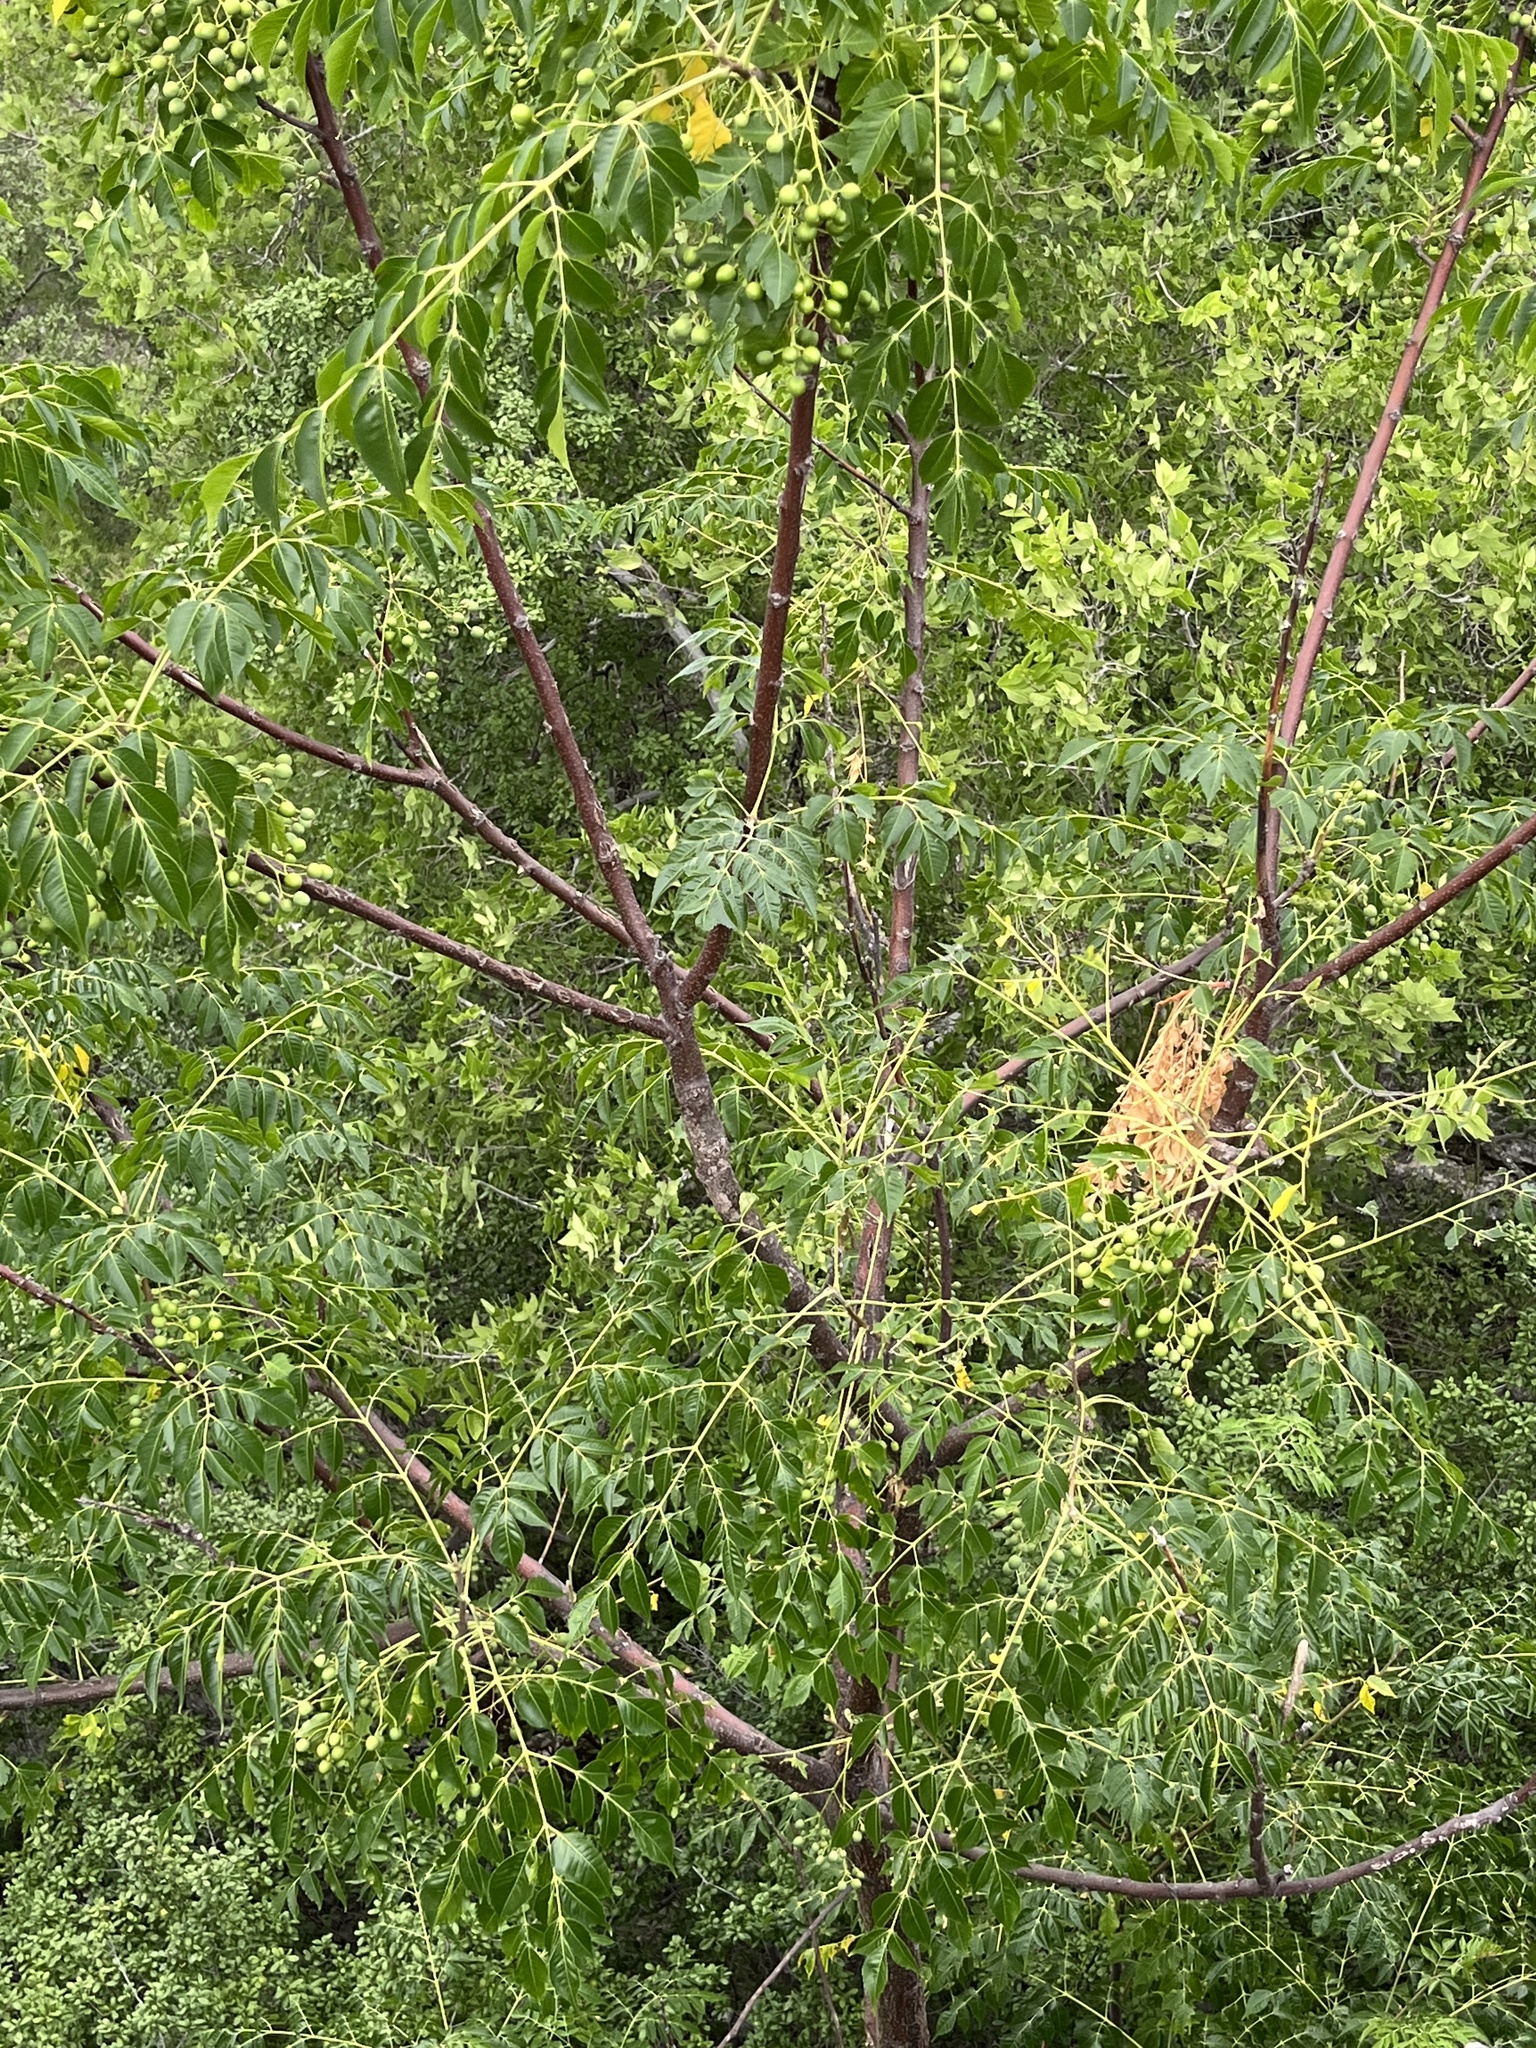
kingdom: Plantae
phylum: Tracheophyta
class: Magnoliopsida
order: Sapindales
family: Meliaceae
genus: Melia
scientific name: Melia azedarach
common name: Chinaberrytree
